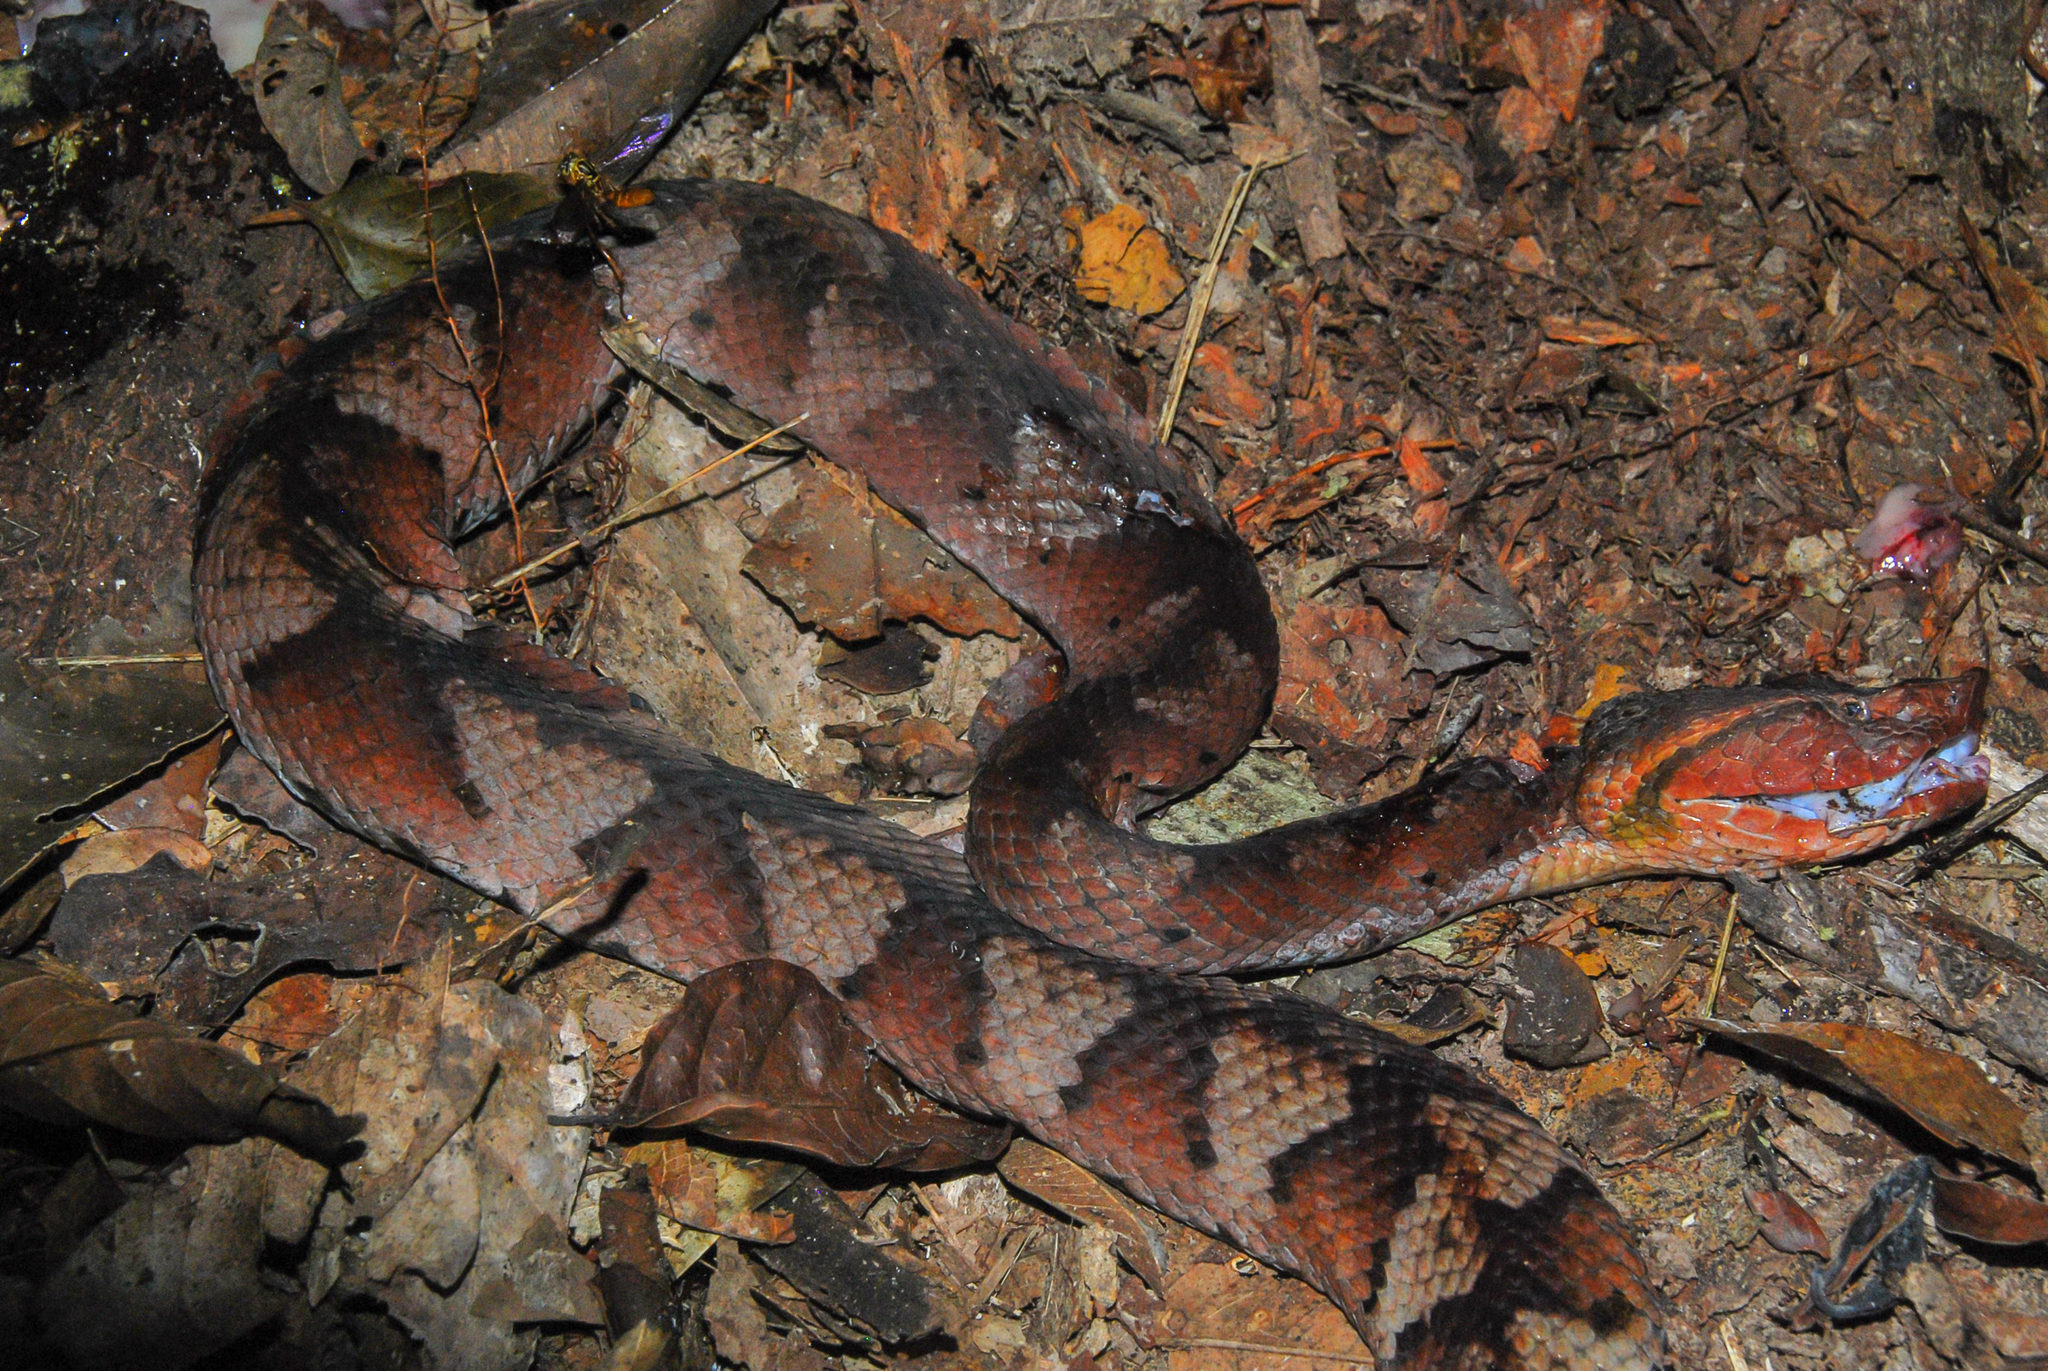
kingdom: Animalia
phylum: Chordata
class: Squamata
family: Viperidae
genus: Bothrocophias
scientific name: Bothrocophias hyoprora
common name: Amazonian toad-headed pitviper
